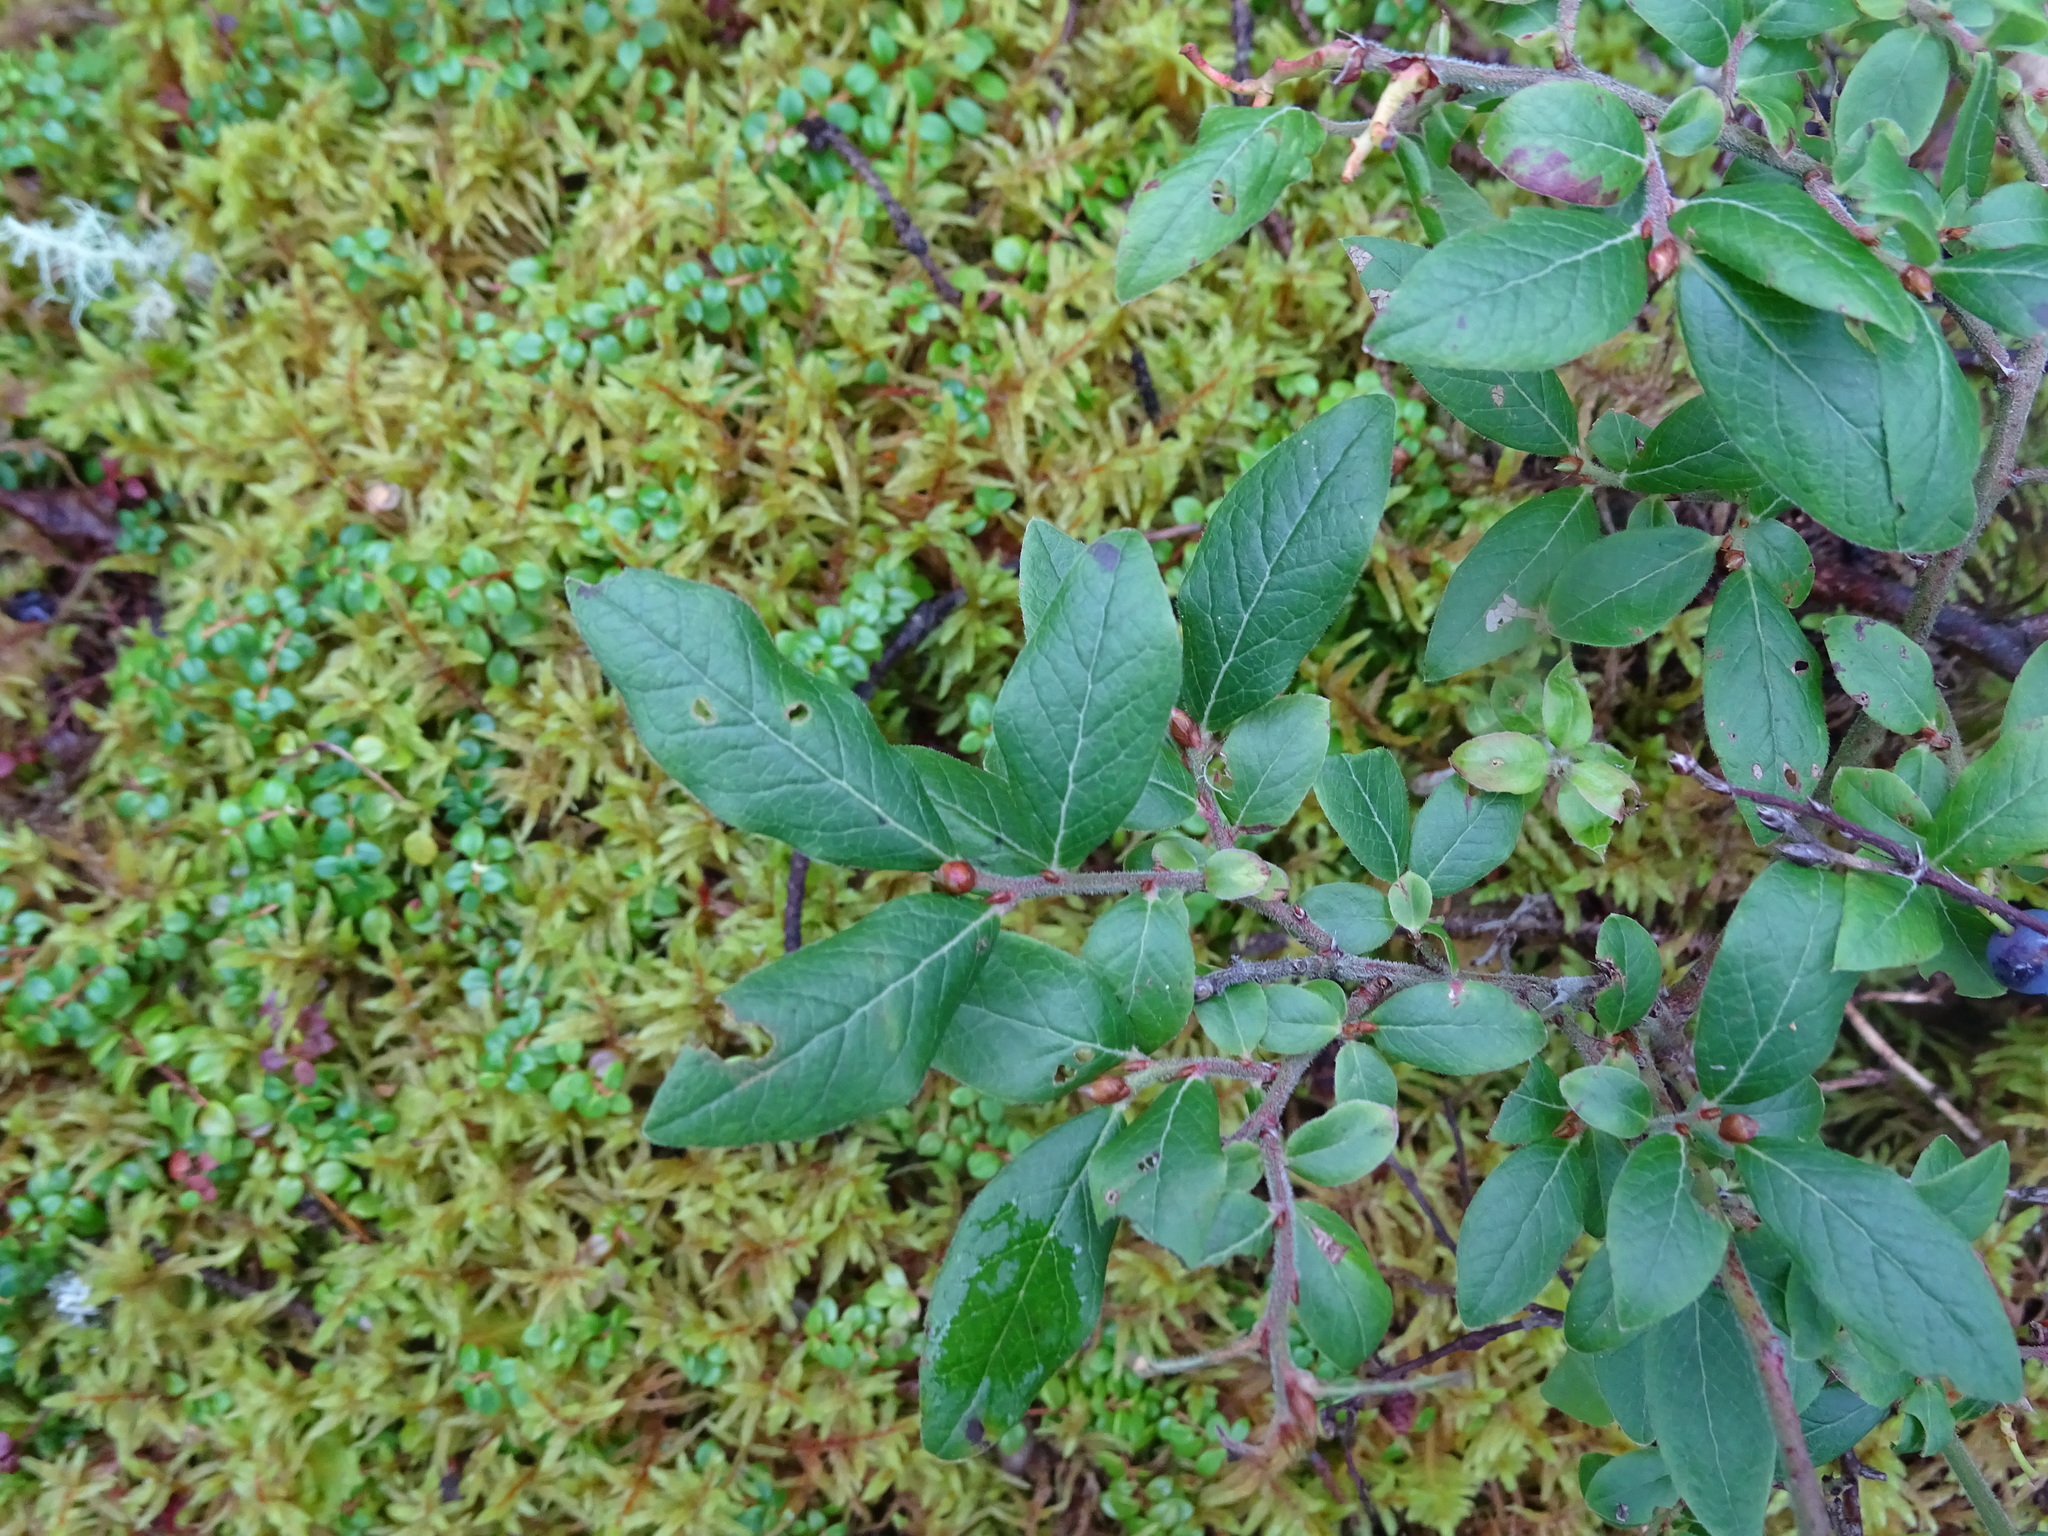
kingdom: Plantae
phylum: Tracheophyta
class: Magnoliopsida
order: Ericales
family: Ericaceae
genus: Vaccinium
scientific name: Vaccinium myrtilloides
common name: Canada blueberry
